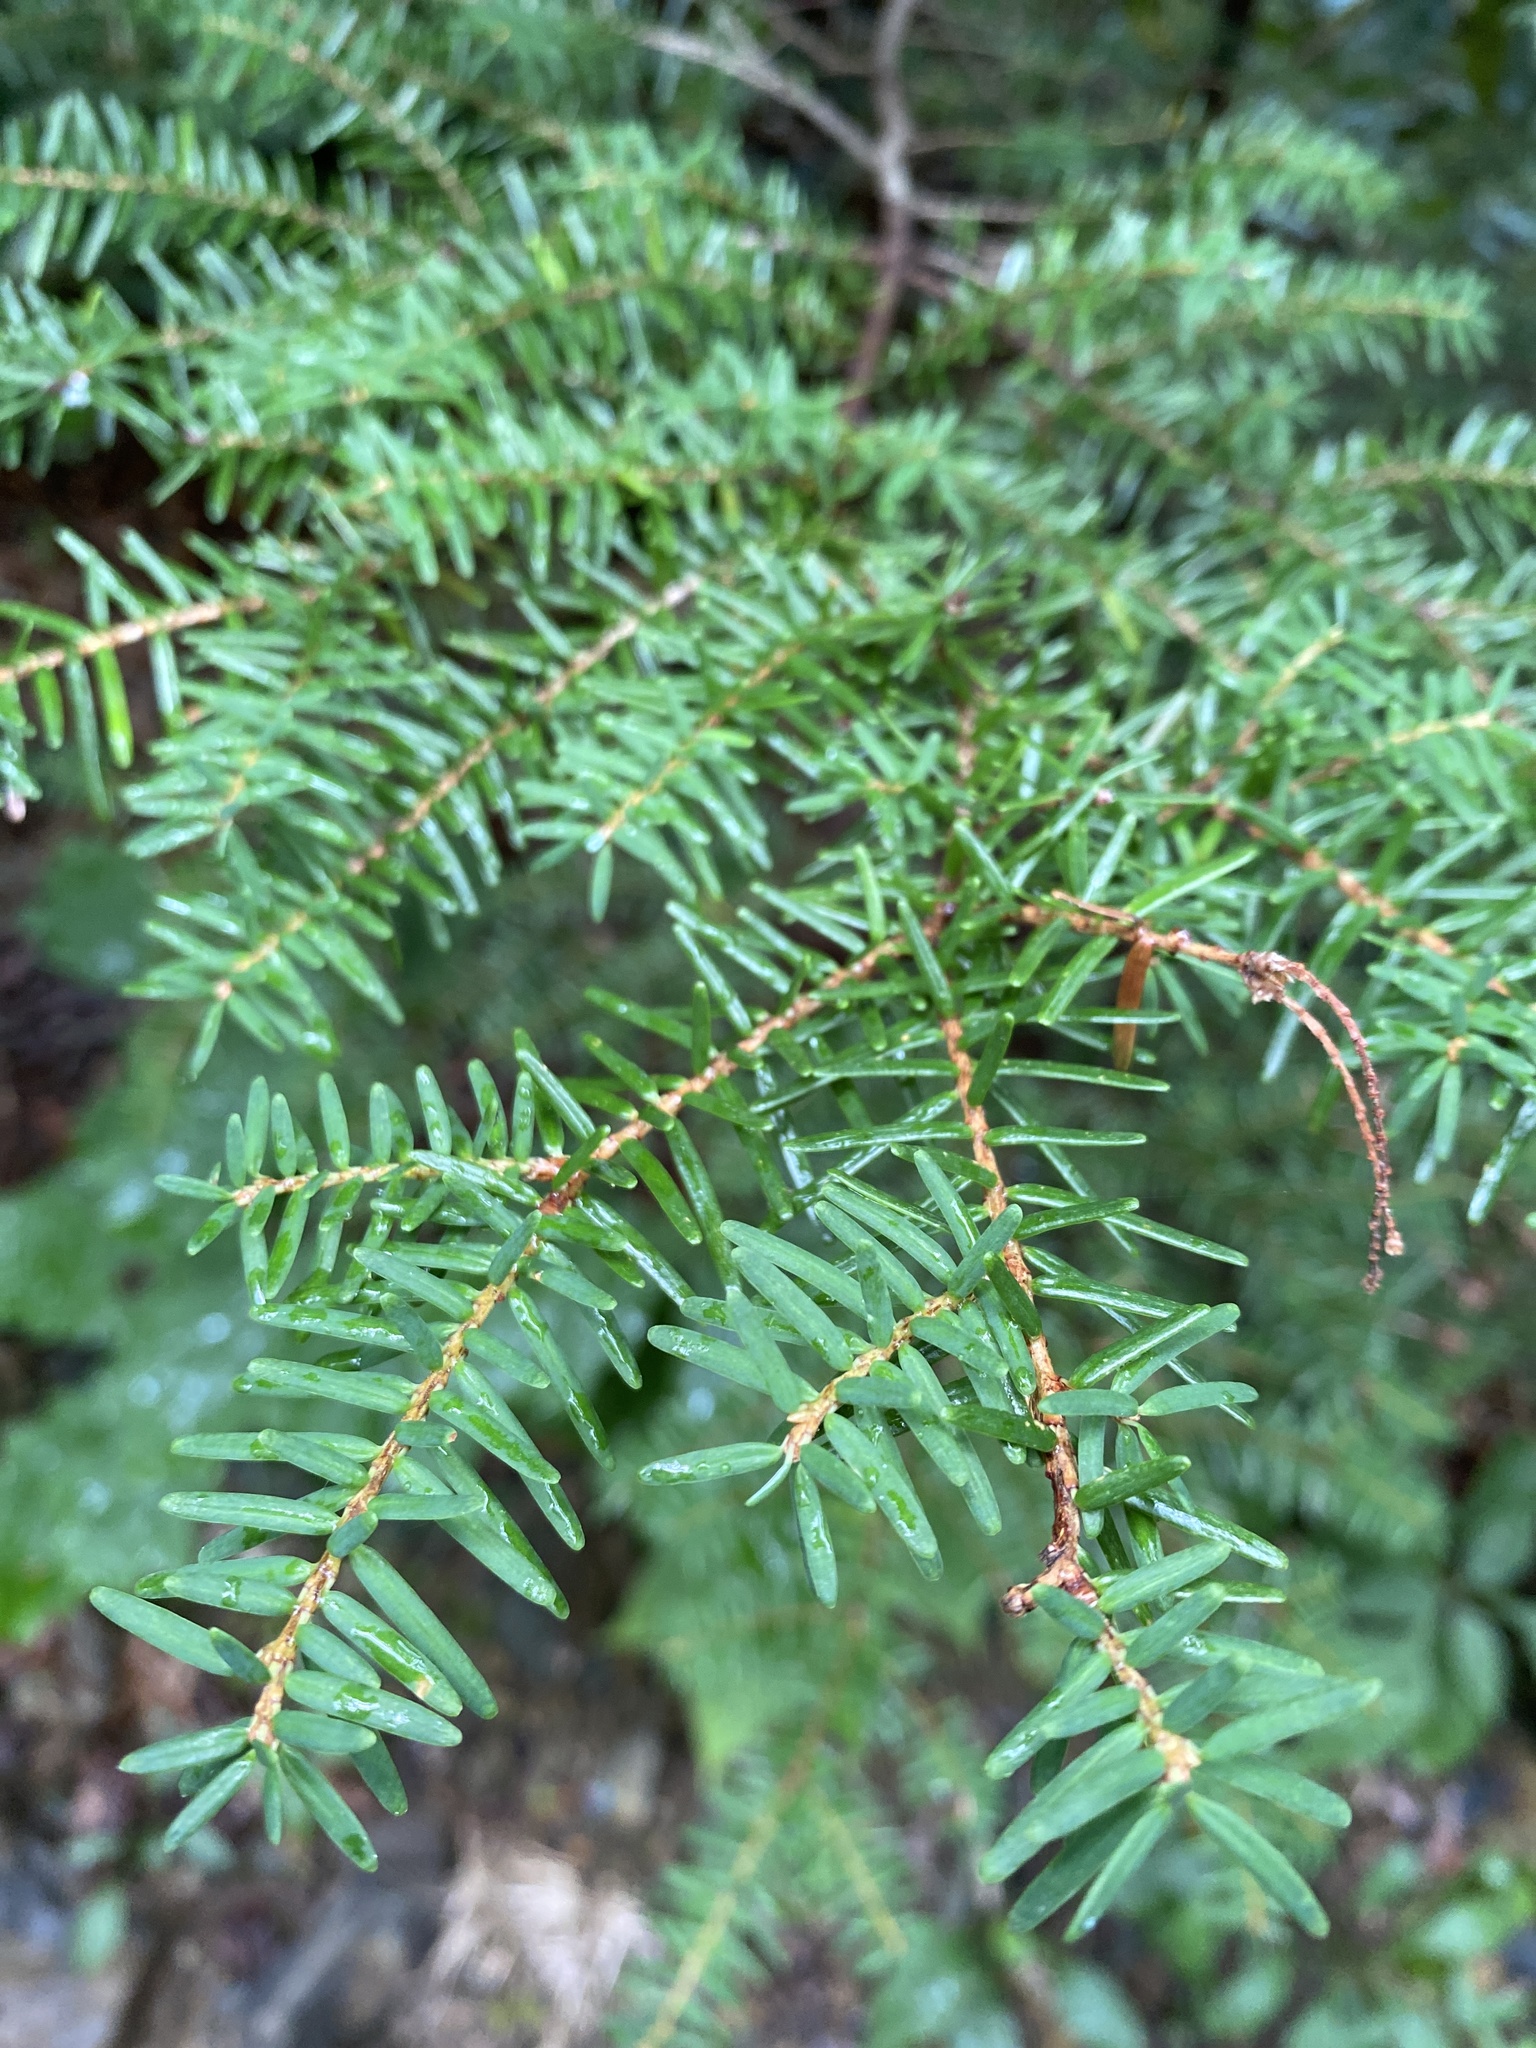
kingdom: Plantae
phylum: Tracheophyta
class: Pinopsida
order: Pinales
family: Pinaceae
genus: Tsuga
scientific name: Tsuga caroliniana
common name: Carolina hemlock
